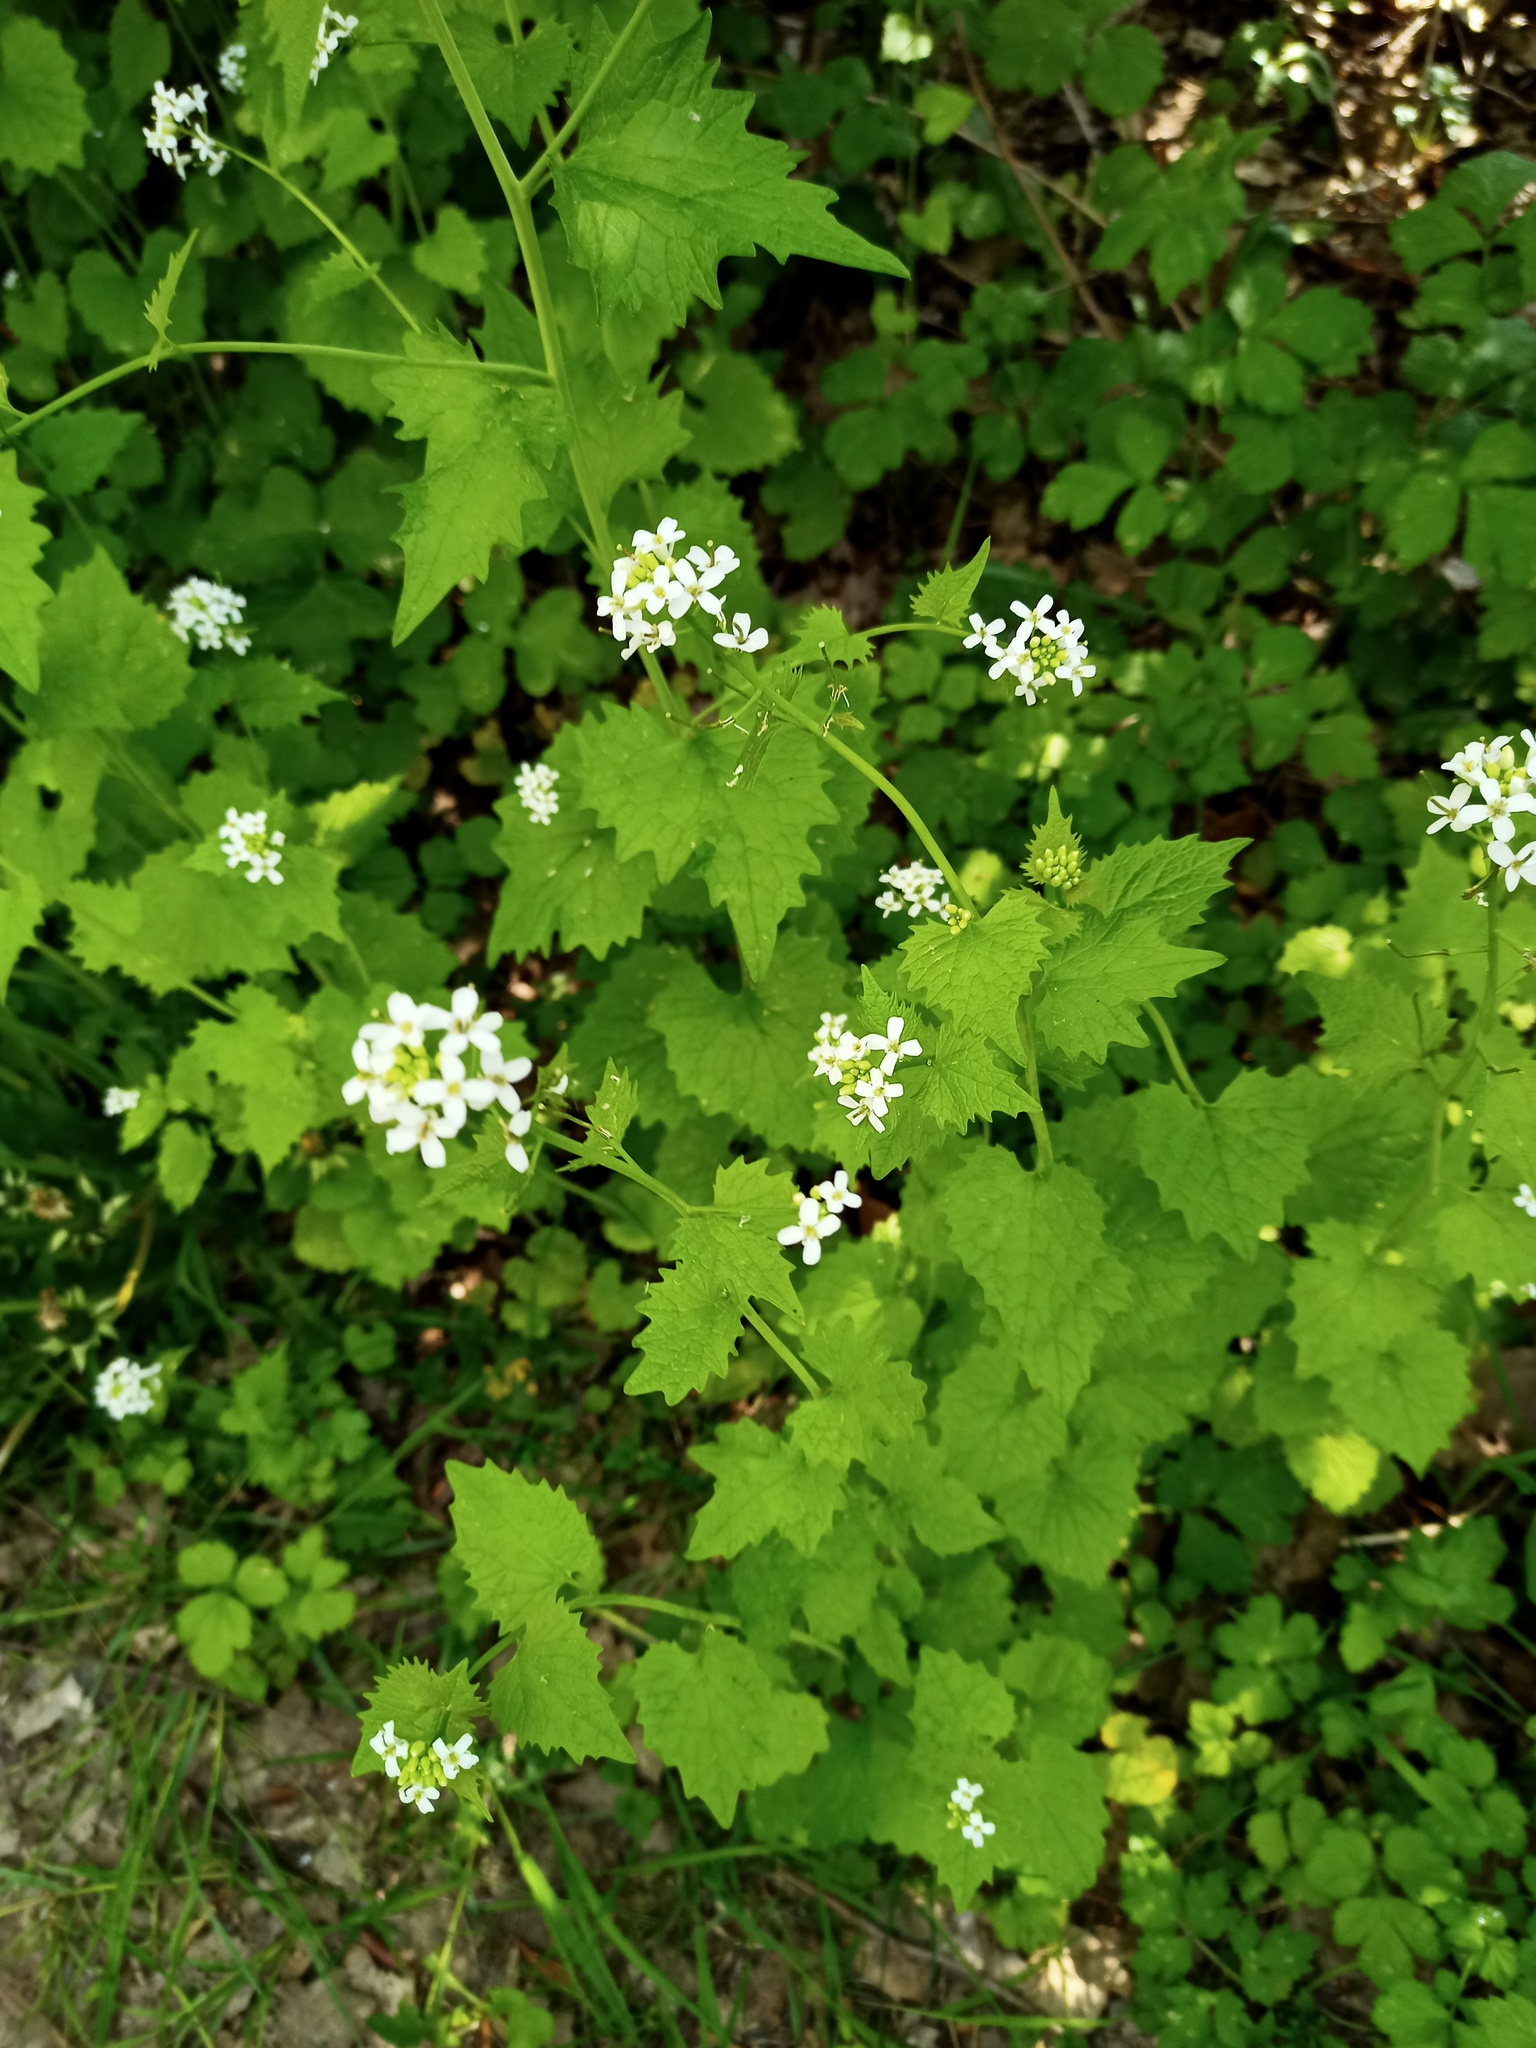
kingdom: Plantae
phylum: Tracheophyta
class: Magnoliopsida
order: Brassicales
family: Brassicaceae
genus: Alliaria
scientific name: Alliaria petiolata
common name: Garlic mustard
